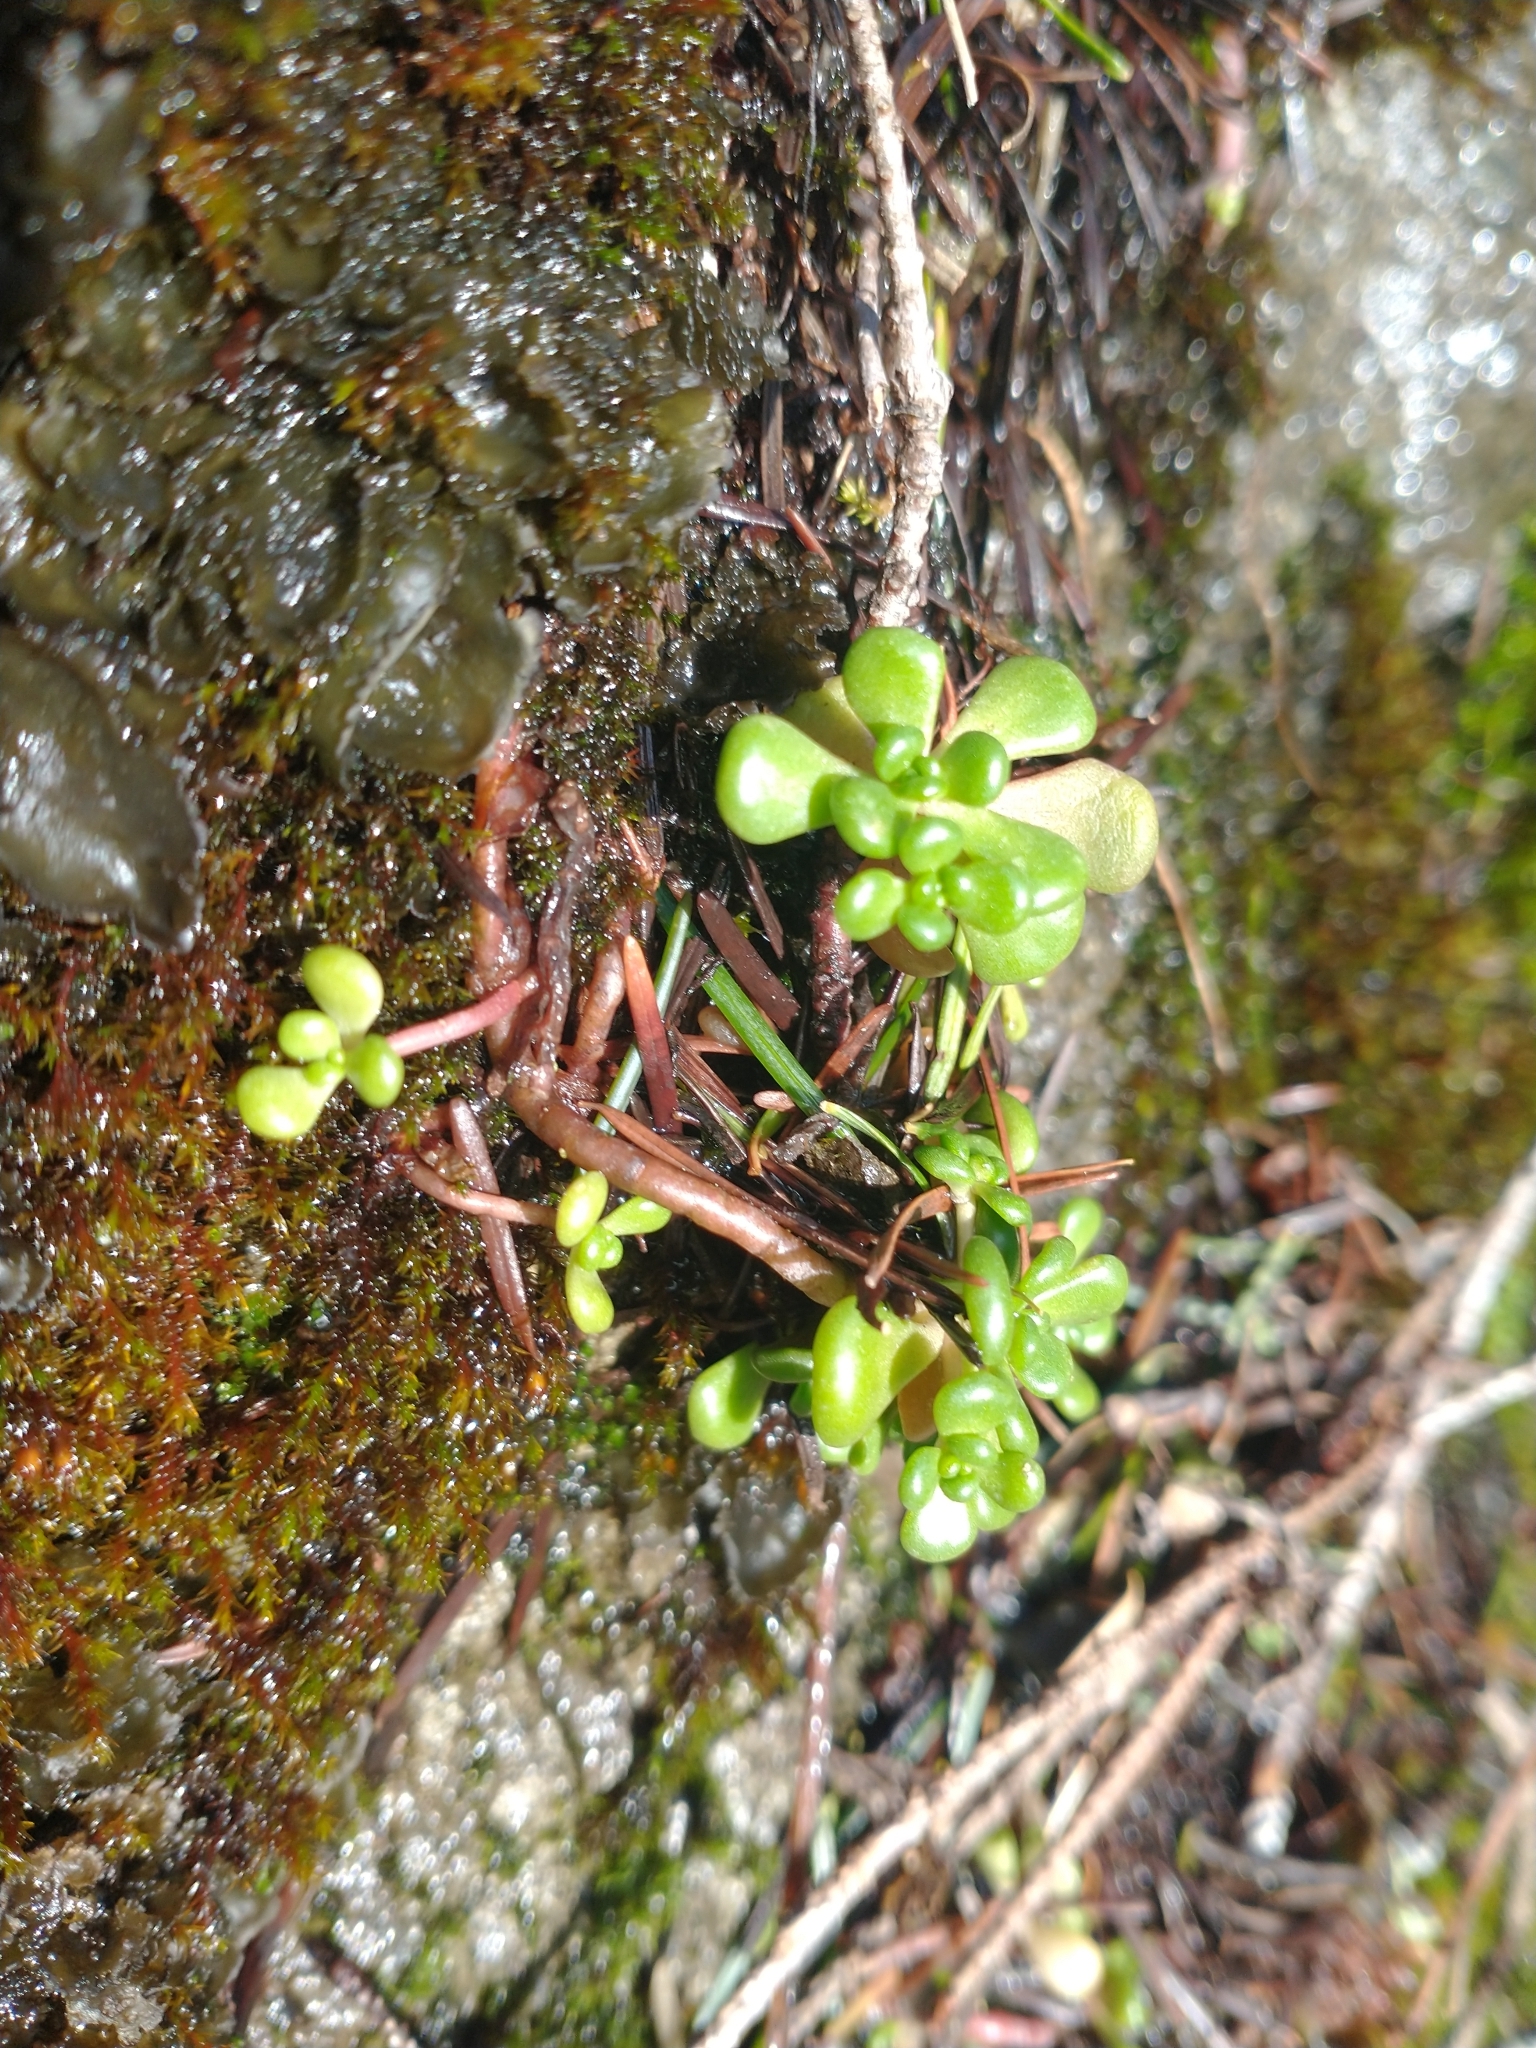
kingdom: Plantae
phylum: Tracheophyta
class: Magnoliopsida
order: Saxifragales
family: Crassulaceae
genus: Sedum
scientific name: Sedum oreganum
